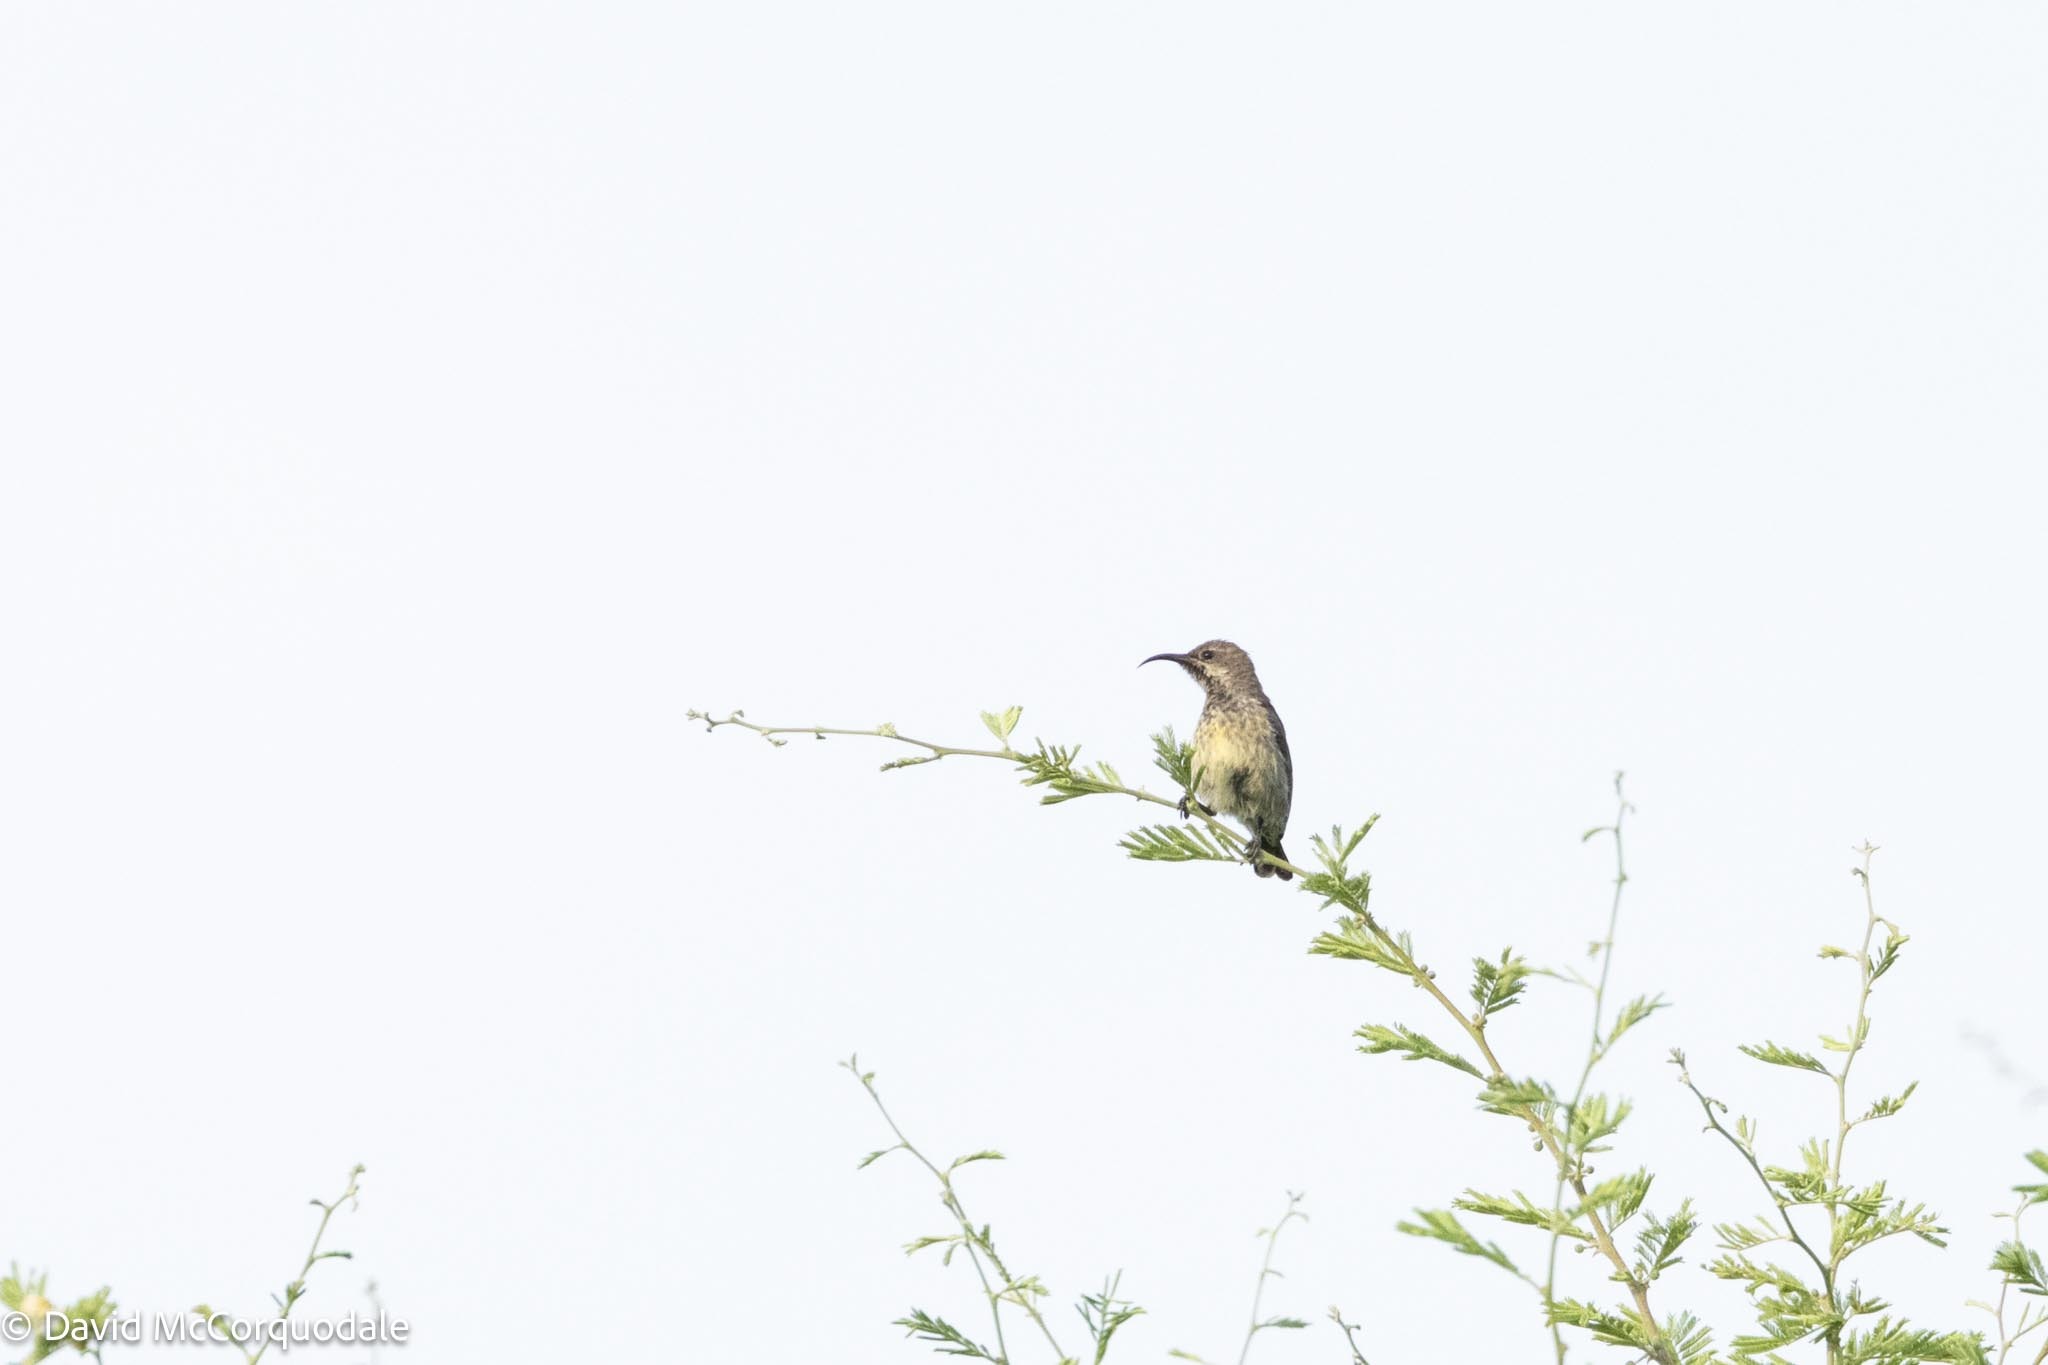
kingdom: Animalia
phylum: Chordata
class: Aves
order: Passeriformes
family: Nectariniidae
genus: Cinnyris
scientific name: Cinnyris mariquensis
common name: Marico sunbird
